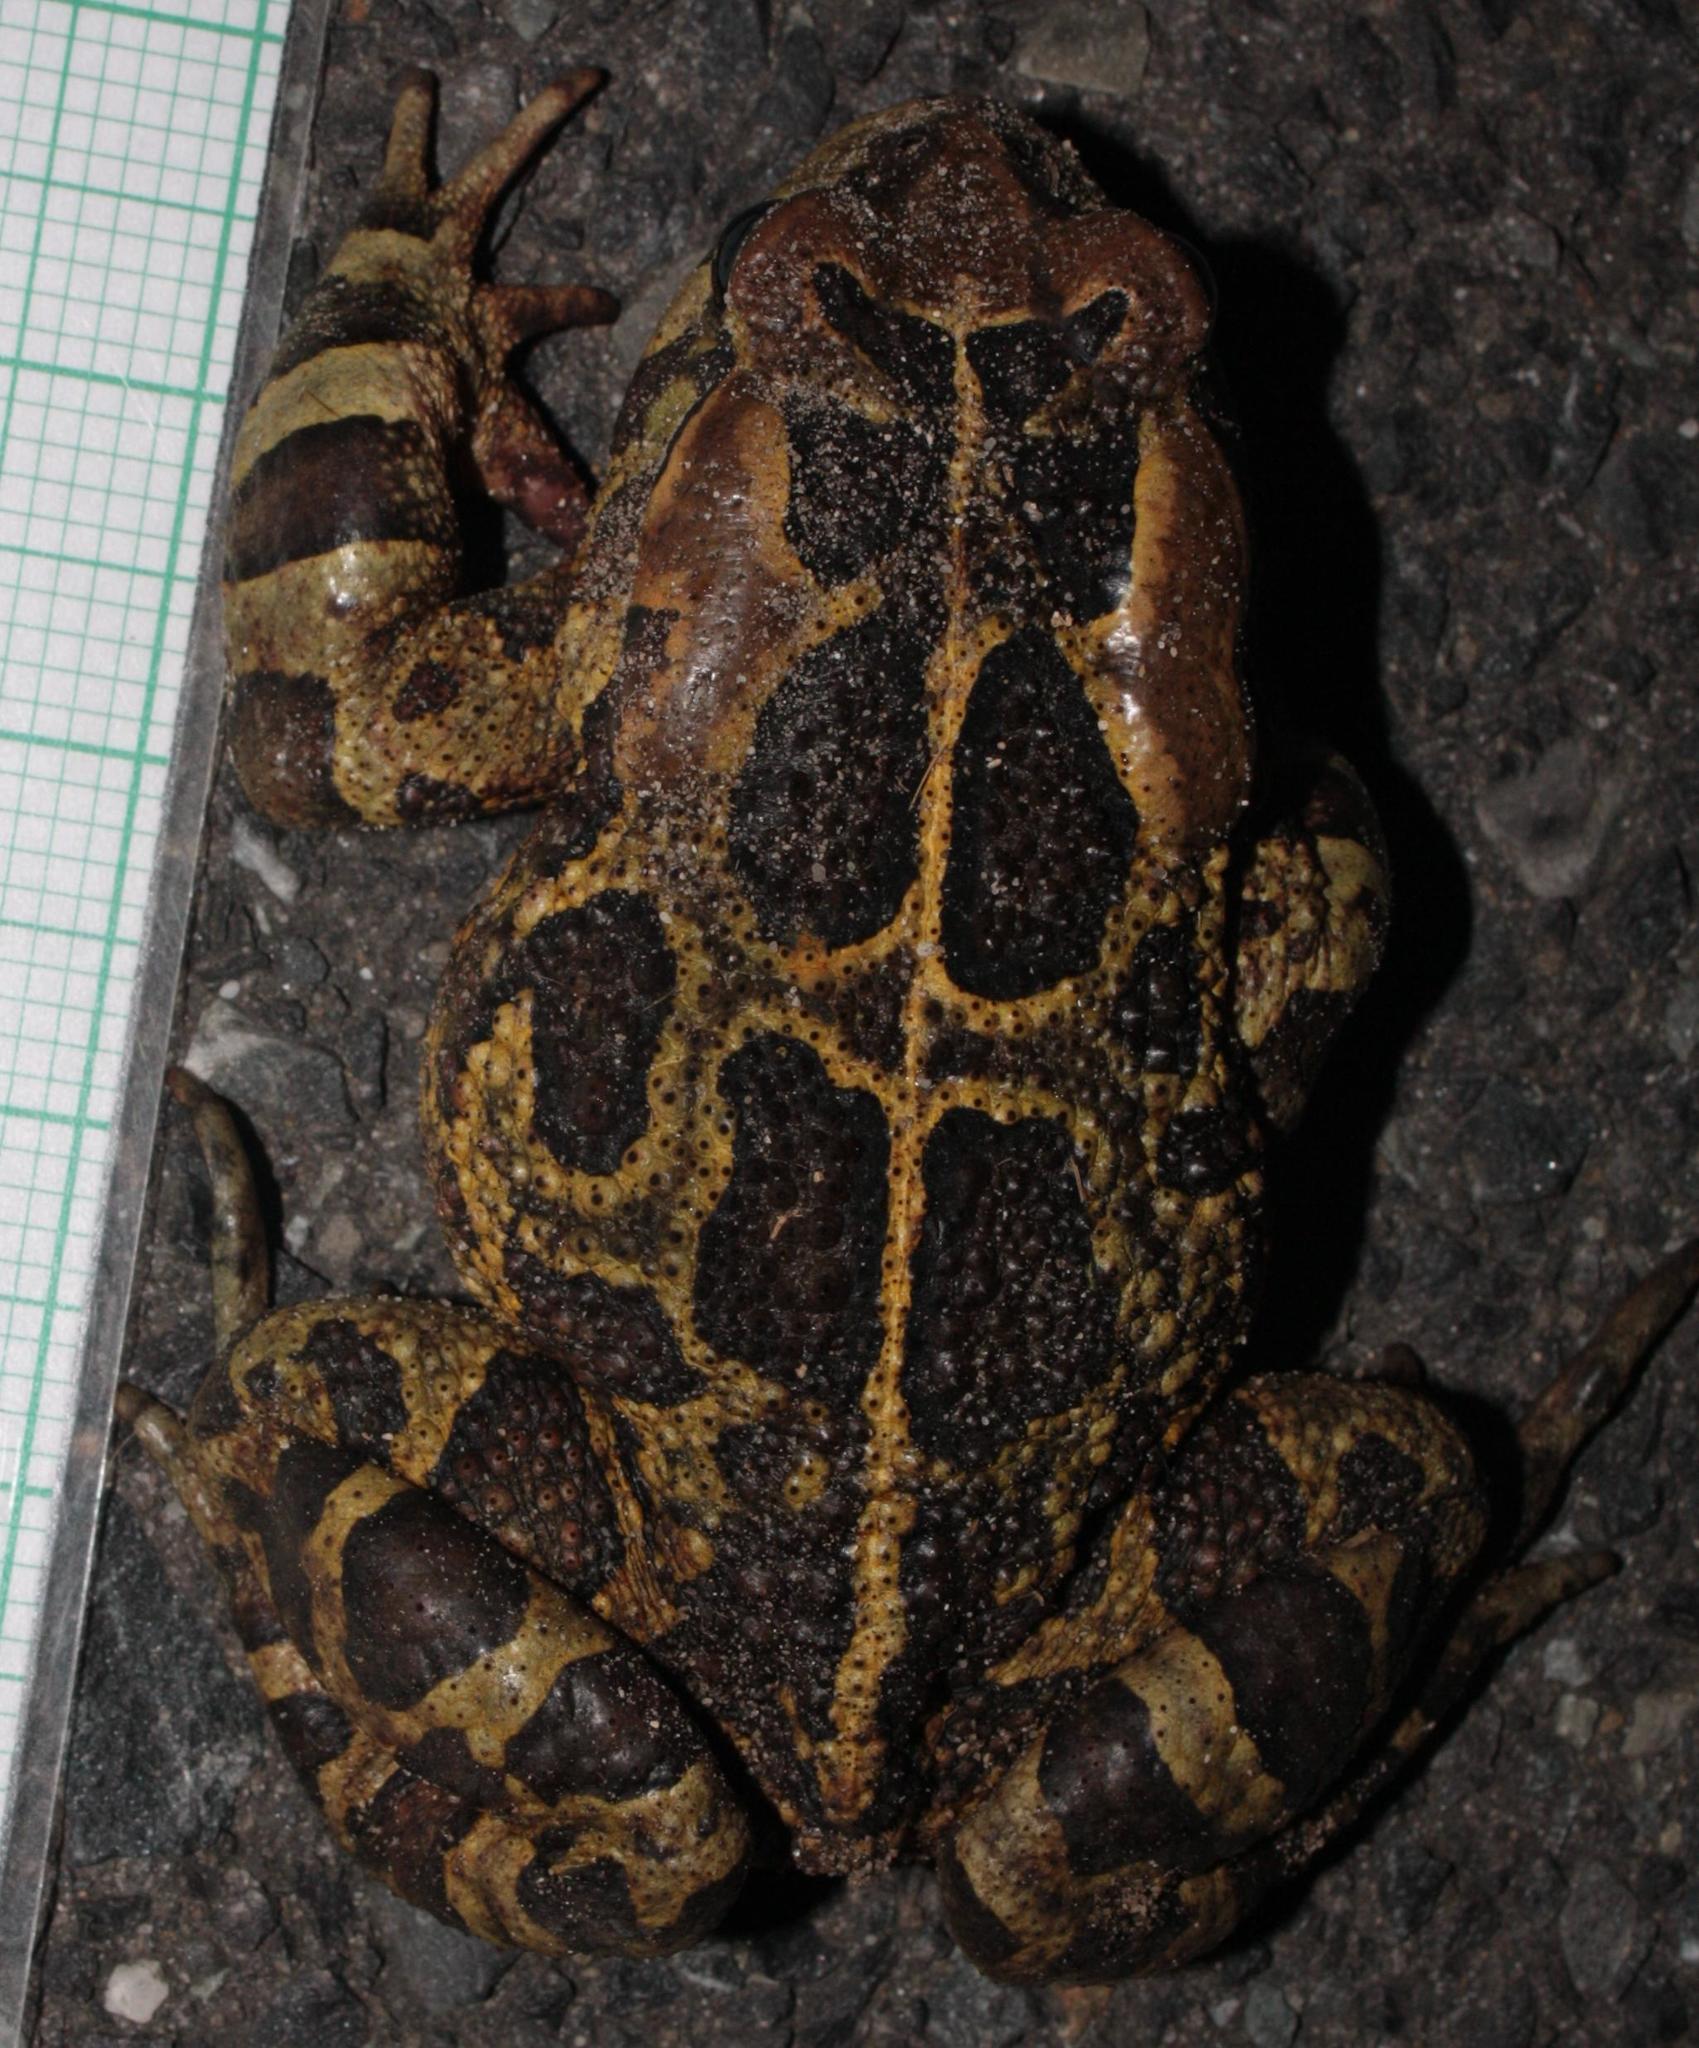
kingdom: Animalia
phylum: Chordata
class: Amphibia
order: Anura
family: Bufonidae
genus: Sclerophrys
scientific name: Sclerophrys pantherina
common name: Panther toad
